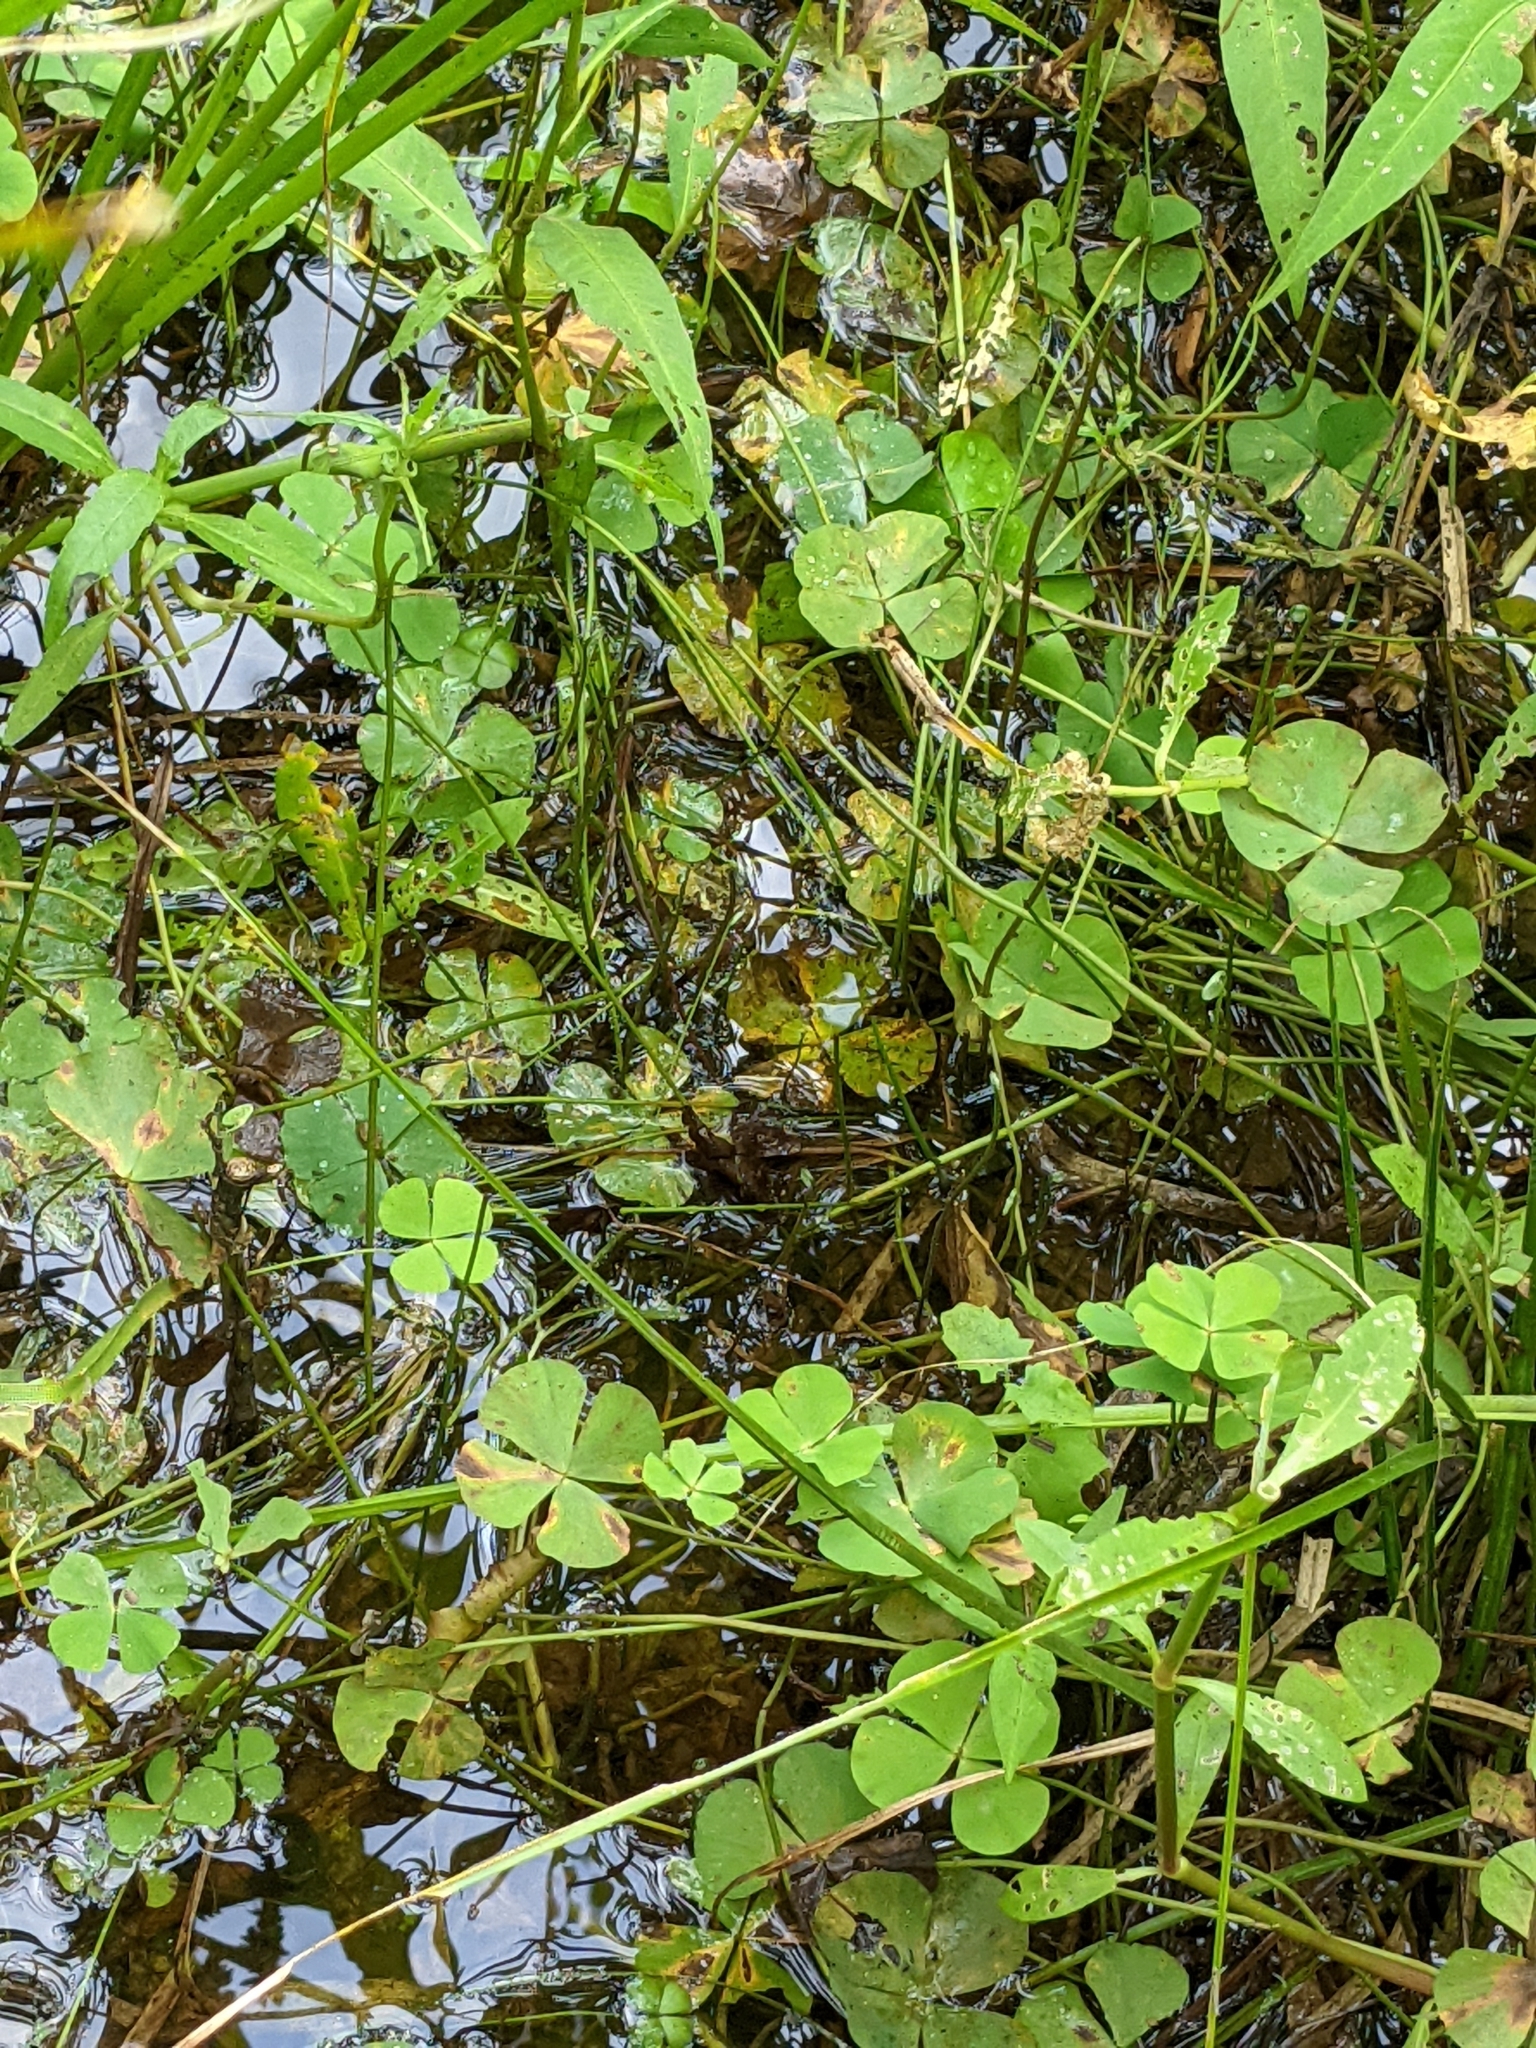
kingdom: Plantae
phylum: Tracheophyta
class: Polypodiopsida
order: Salviniales
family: Marsileaceae
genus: Marsilea
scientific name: Marsilea minuta
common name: Dwarf waterclover
